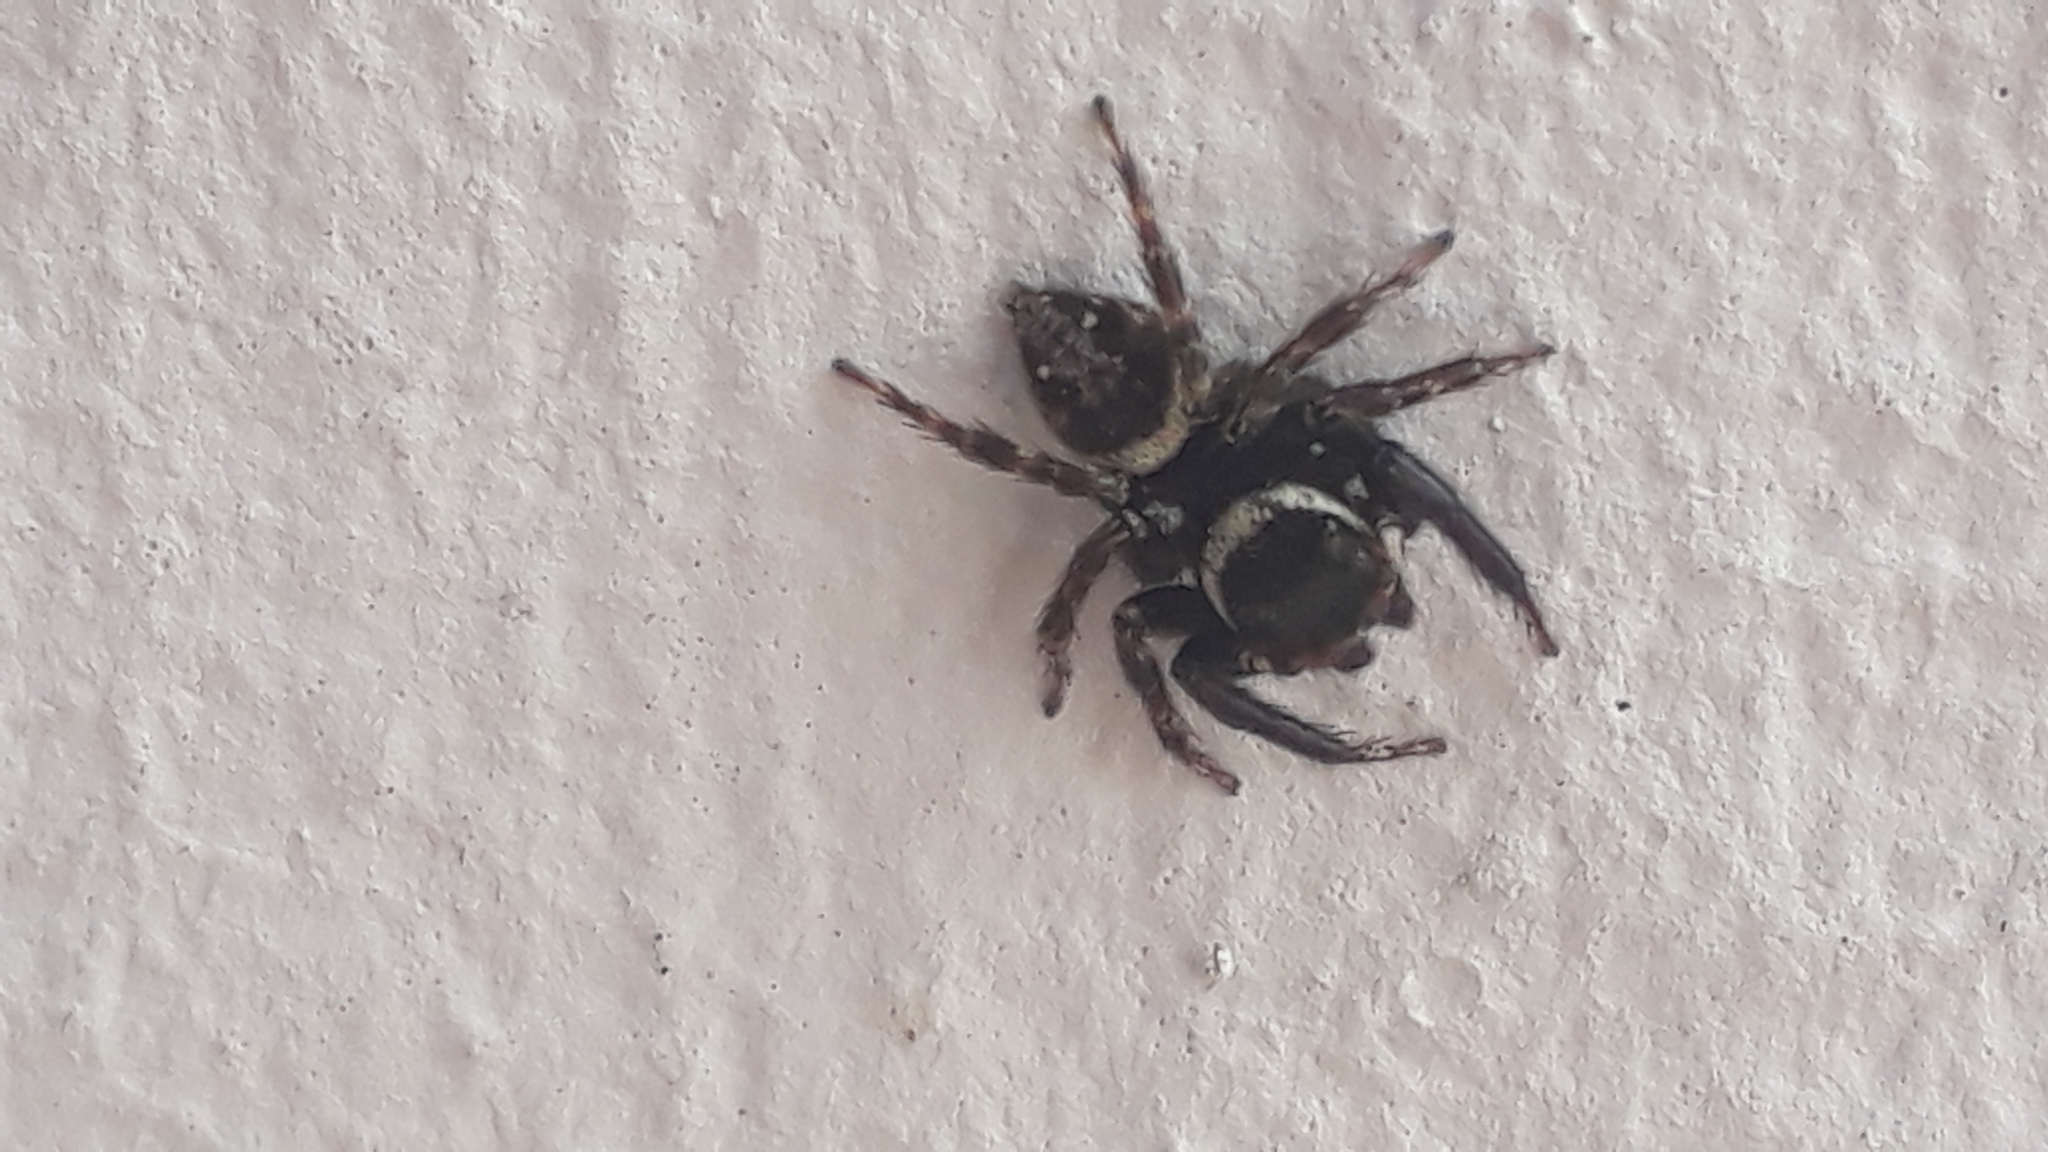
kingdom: Animalia
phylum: Arthropoda
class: Arachnida
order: Araneae
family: Salticidae
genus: Hasarius
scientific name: Hasarius adansoni
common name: Jumping spider
